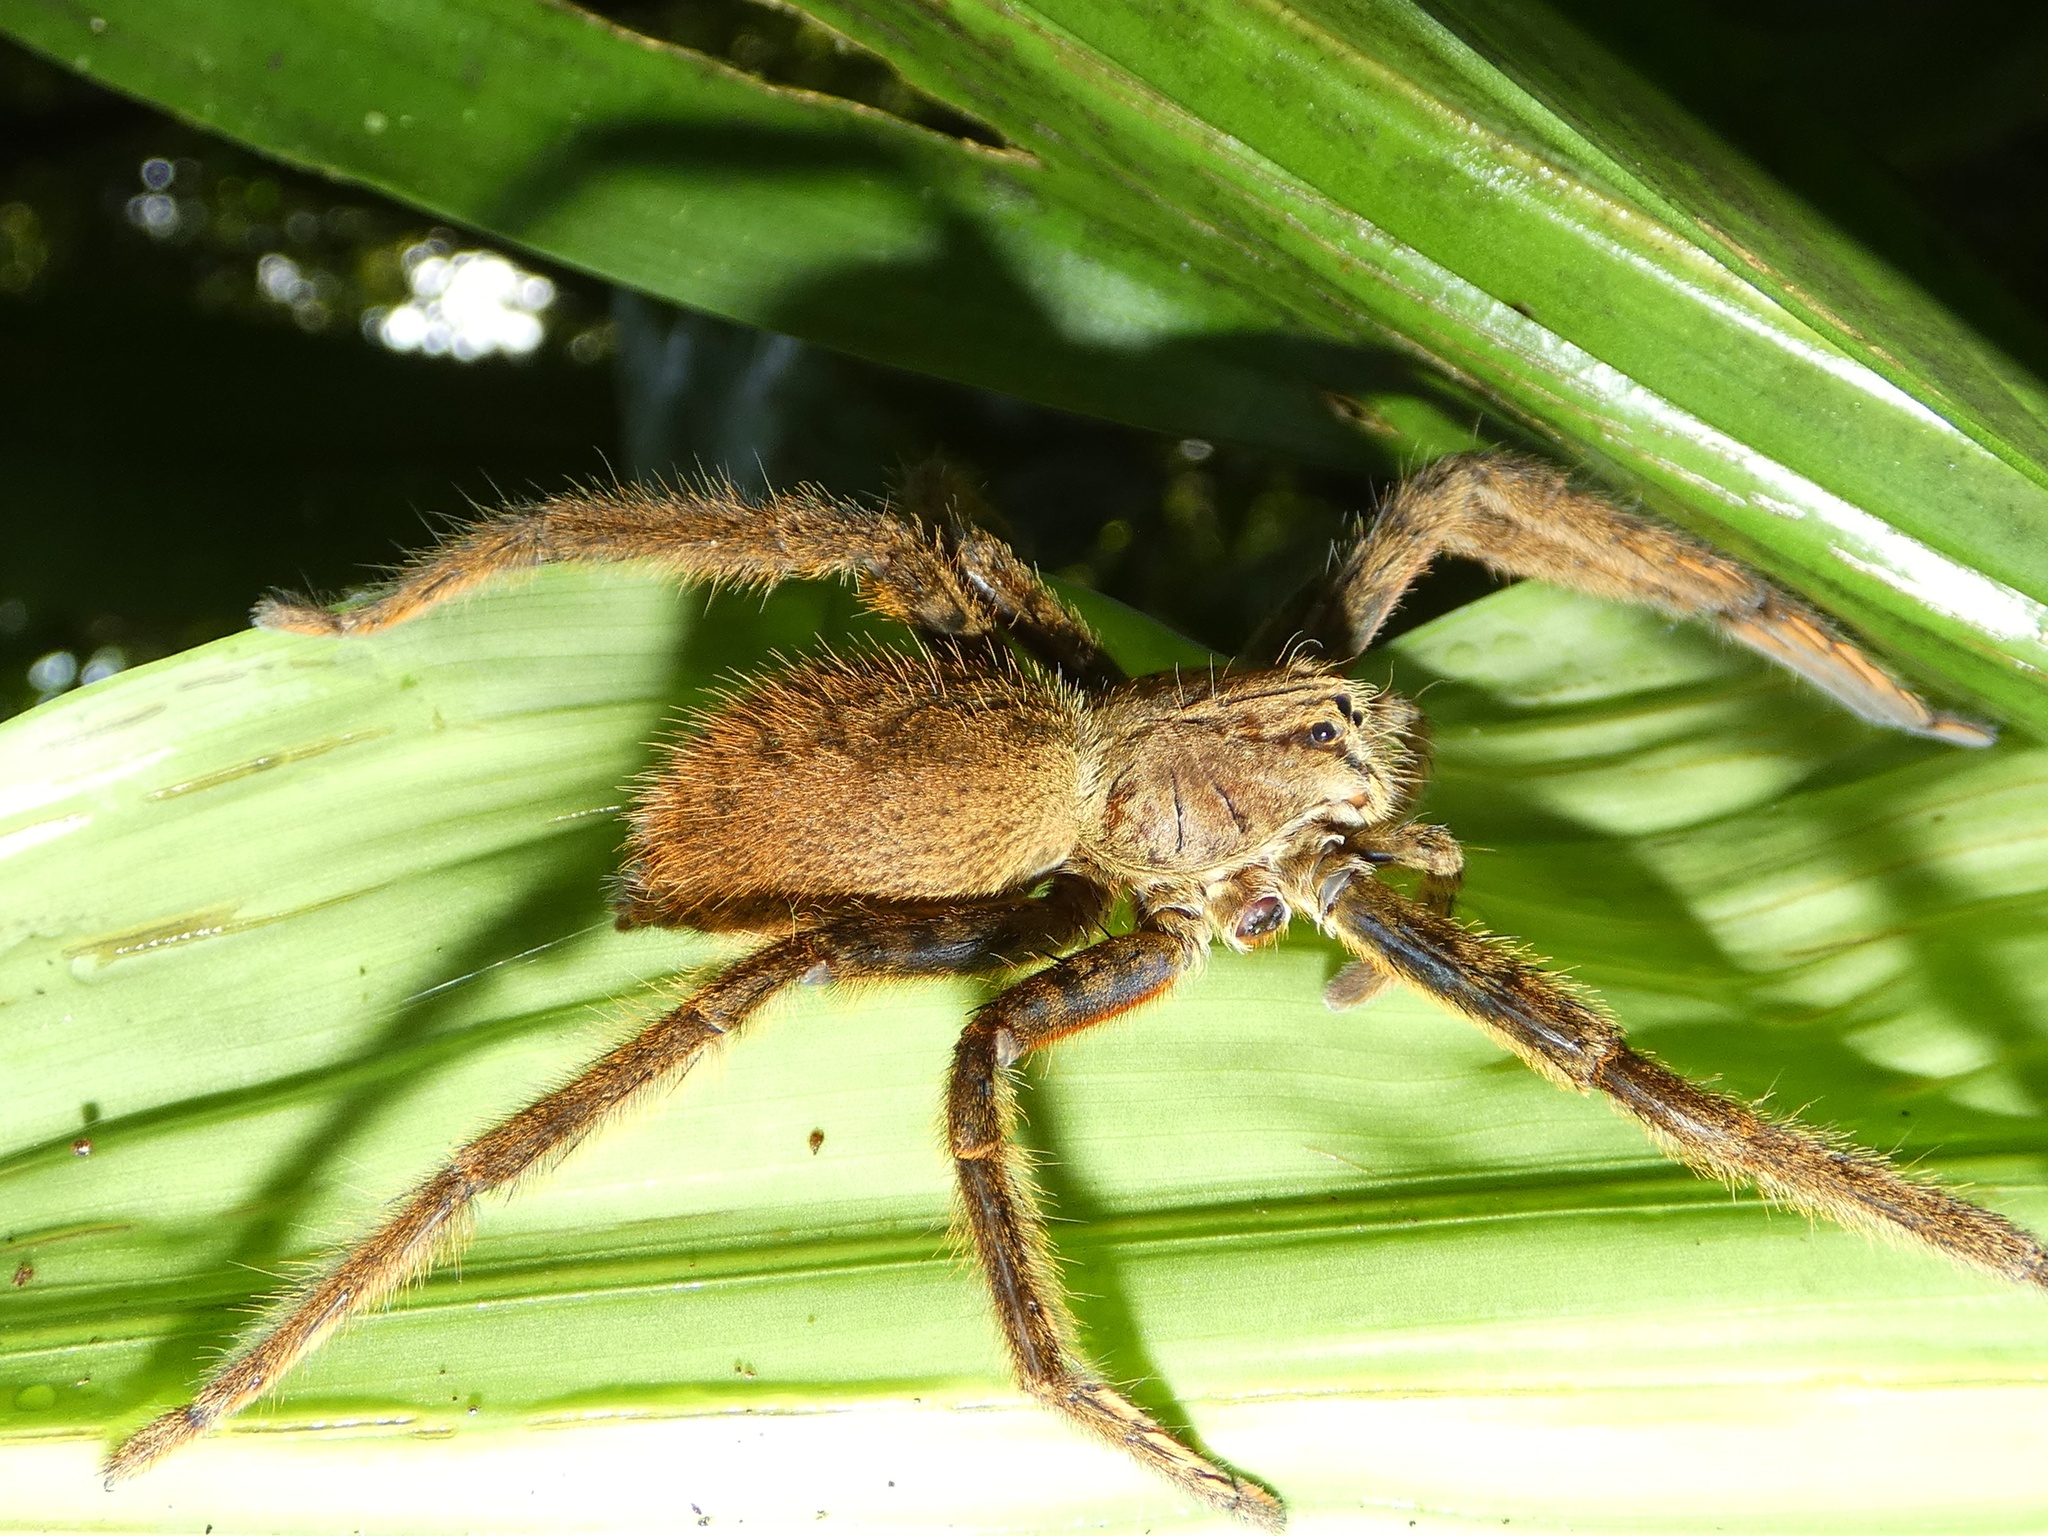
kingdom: Animalia
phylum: Arthropoda
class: Arachnida
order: Araneae
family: Trechaleidae
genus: Cupiennius
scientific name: Cupiennius coccineus
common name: Wandering spiders
